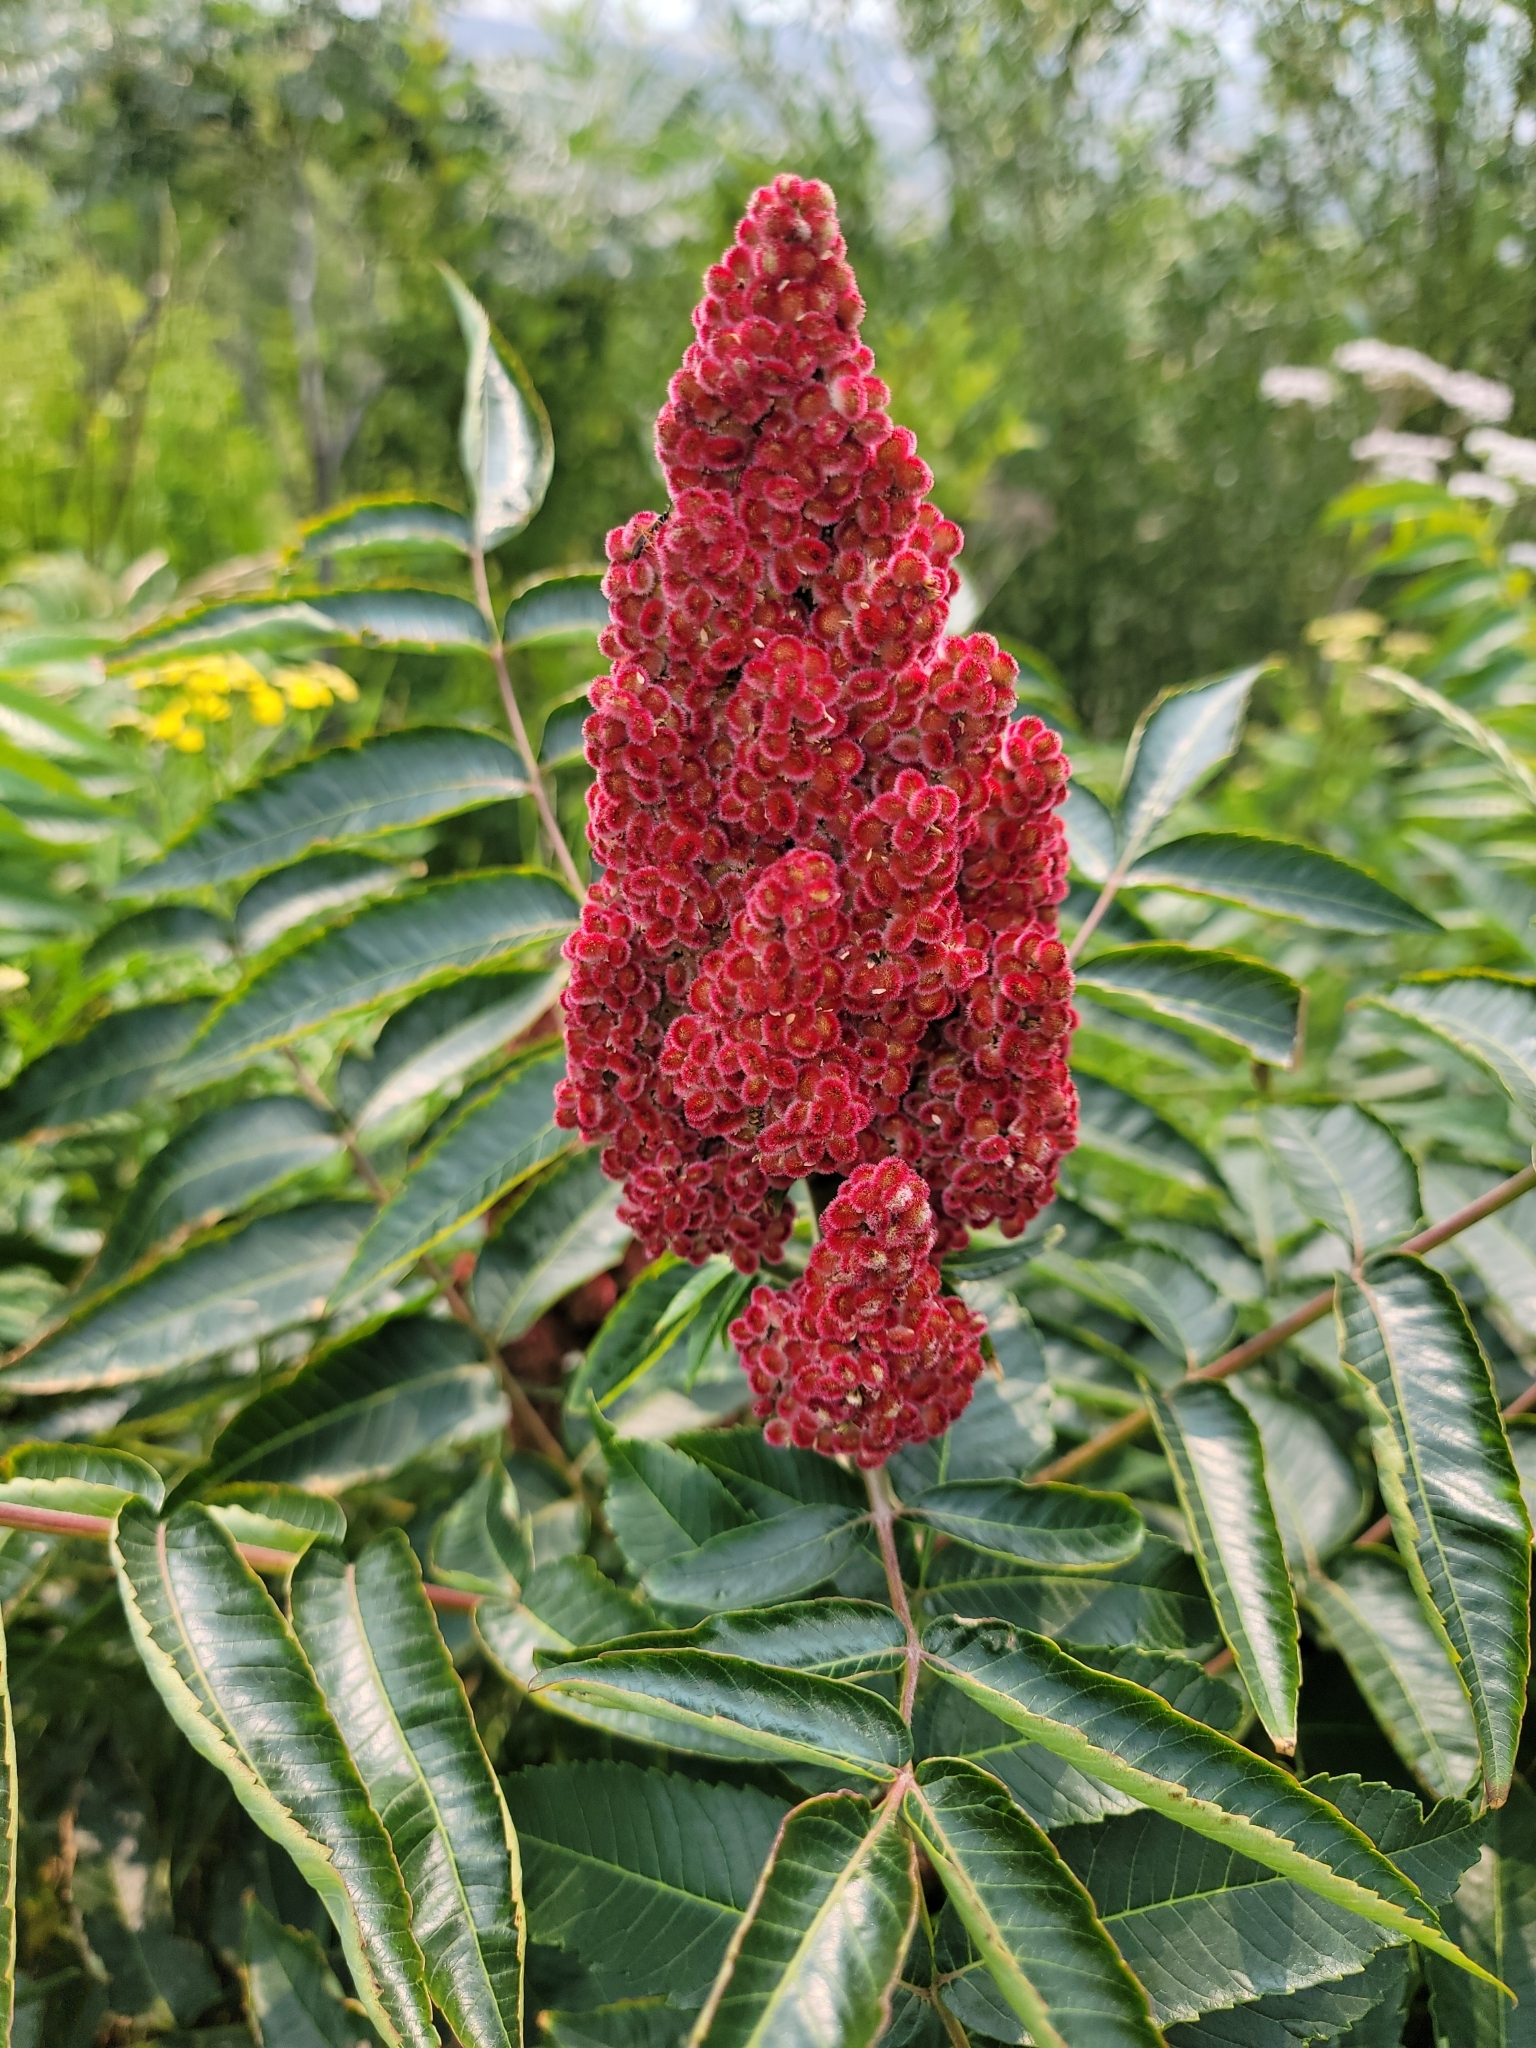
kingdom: Plantae
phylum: Tracheophyta
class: Magnoliopsida
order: Sapindales
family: Anacardiaceae
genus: Rhus
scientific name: Rhus typhina
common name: Staghorn sumac
